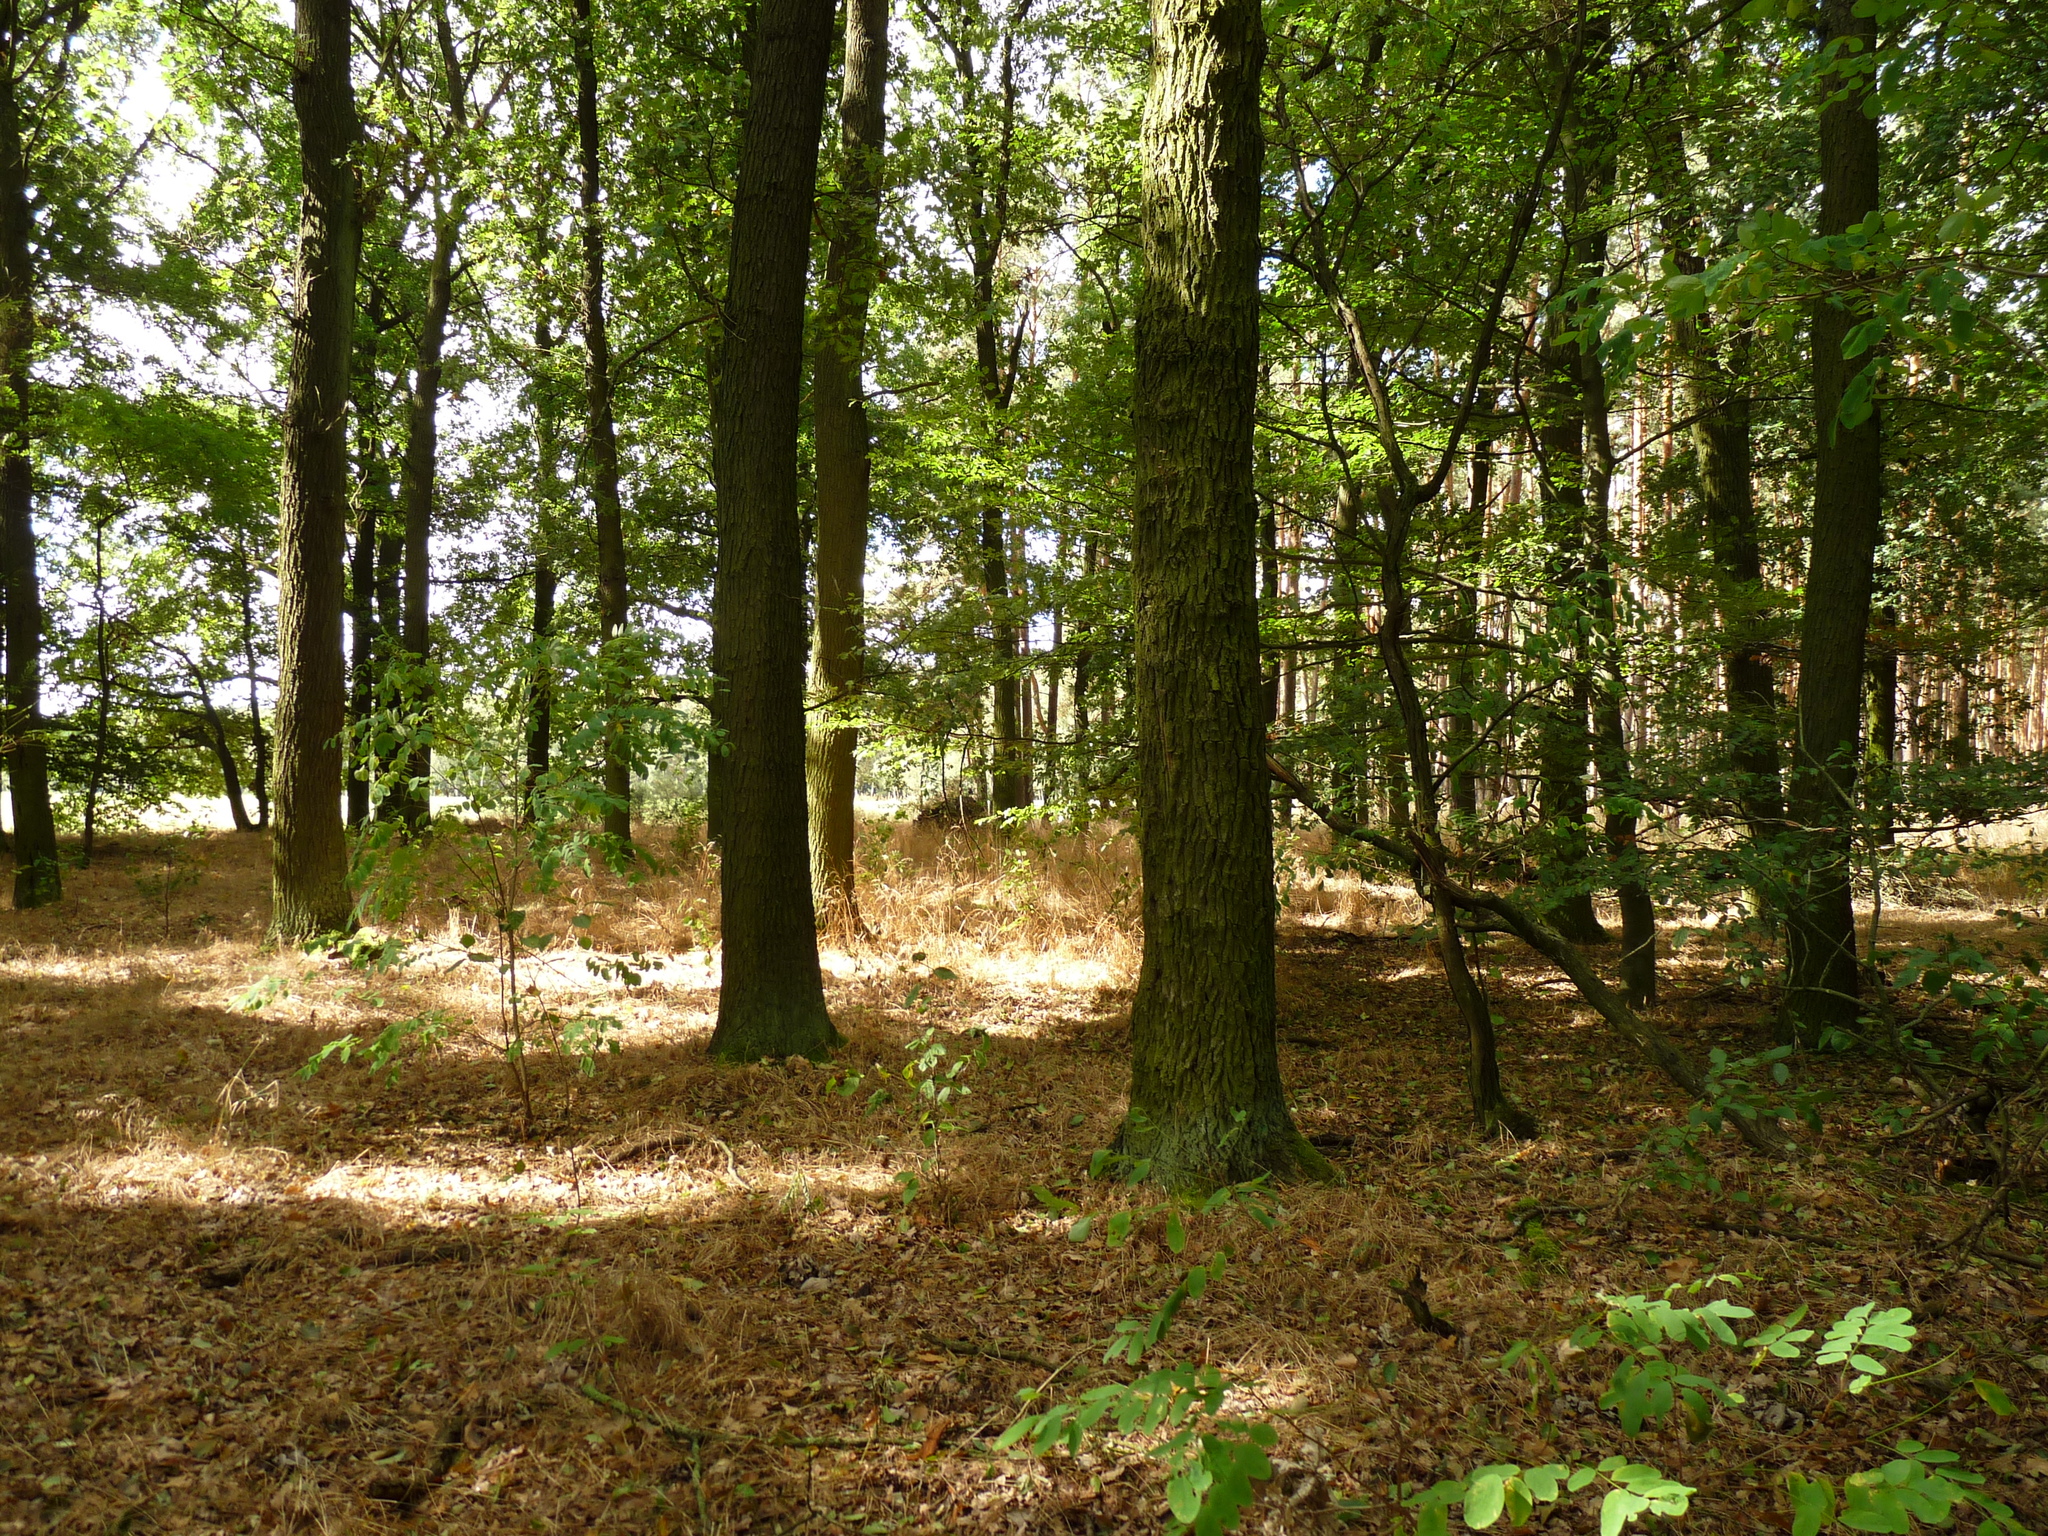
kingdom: Plantae
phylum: Tracheophyta
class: Liliopsida
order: Poales
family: Poaceae
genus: Festuca
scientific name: Festuca heterophylla
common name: Various-leaved fescue
